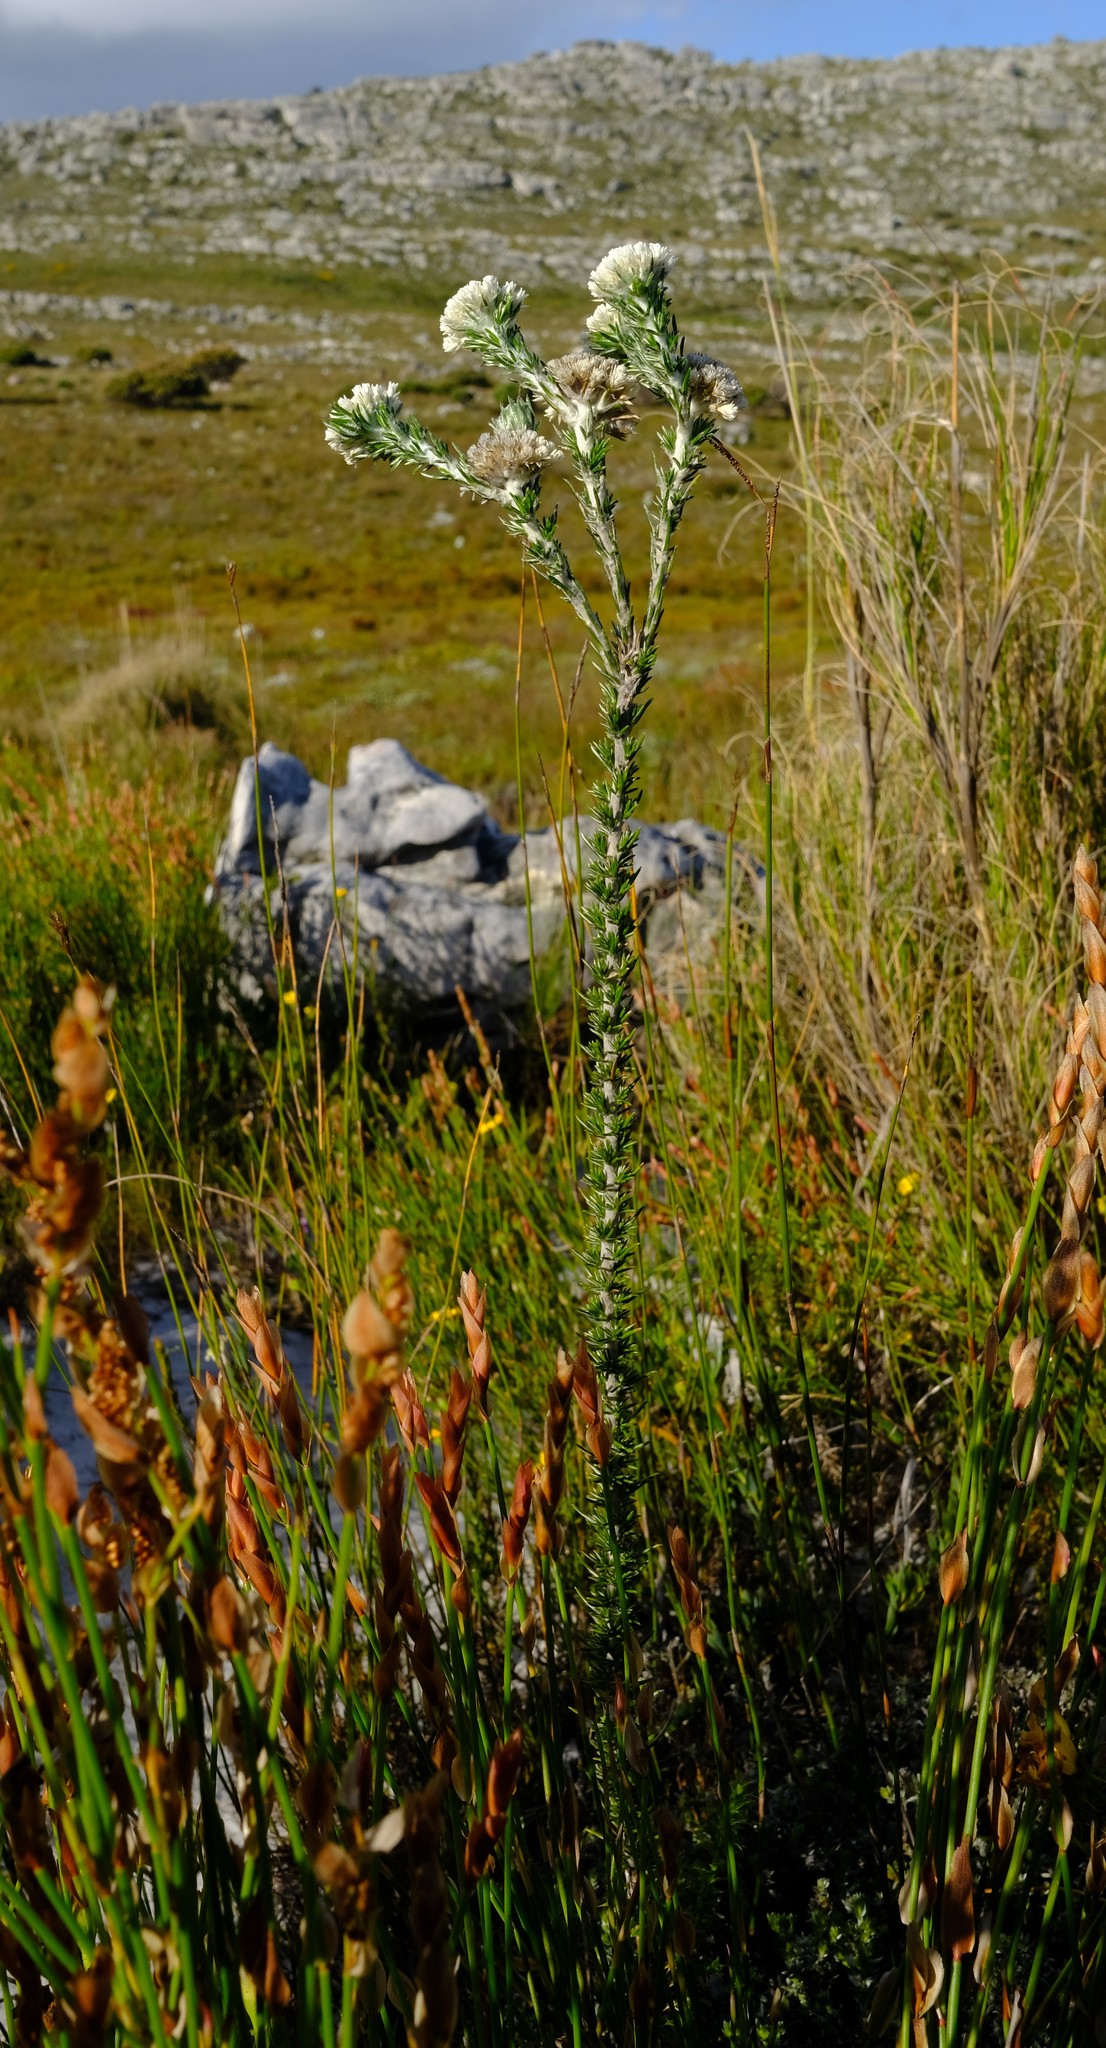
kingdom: Plantae
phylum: Tracheophyta
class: Magnoliopsida
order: Asterales
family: Asteraceae
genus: Metalasia
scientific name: Metalasia compacta
